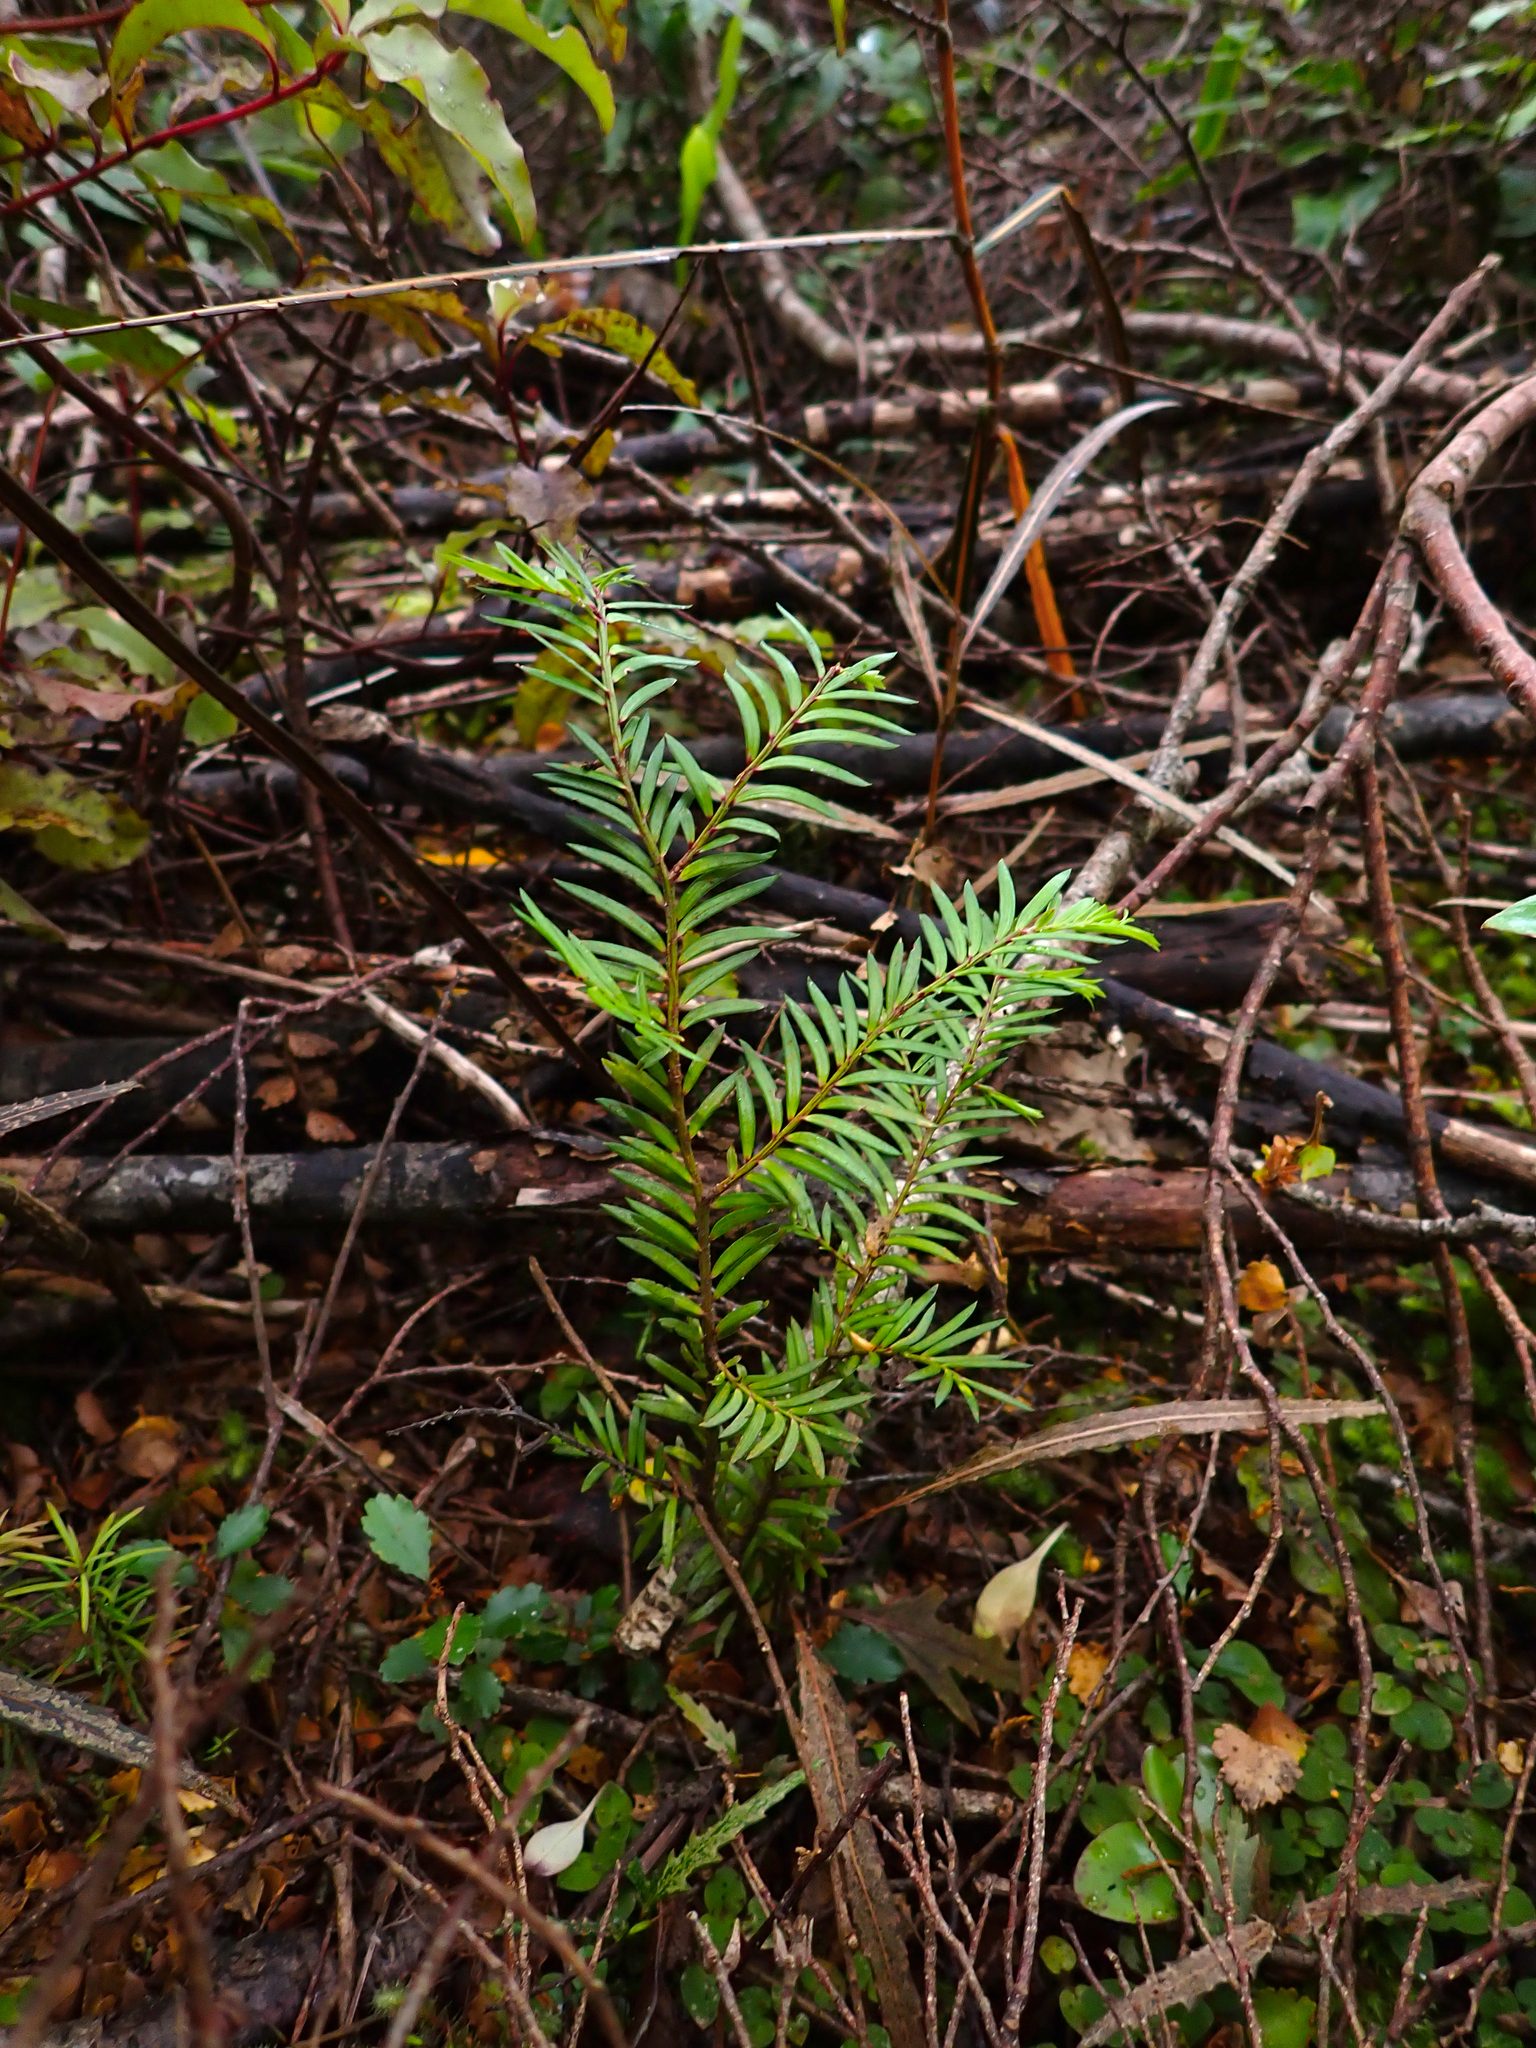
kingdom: Plantae
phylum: Tracheophyta
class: Pinopsida
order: Pinales
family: Podocarpaceae
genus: Prumnopitys
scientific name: Prumnopitys ferruginea
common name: Brown pine
